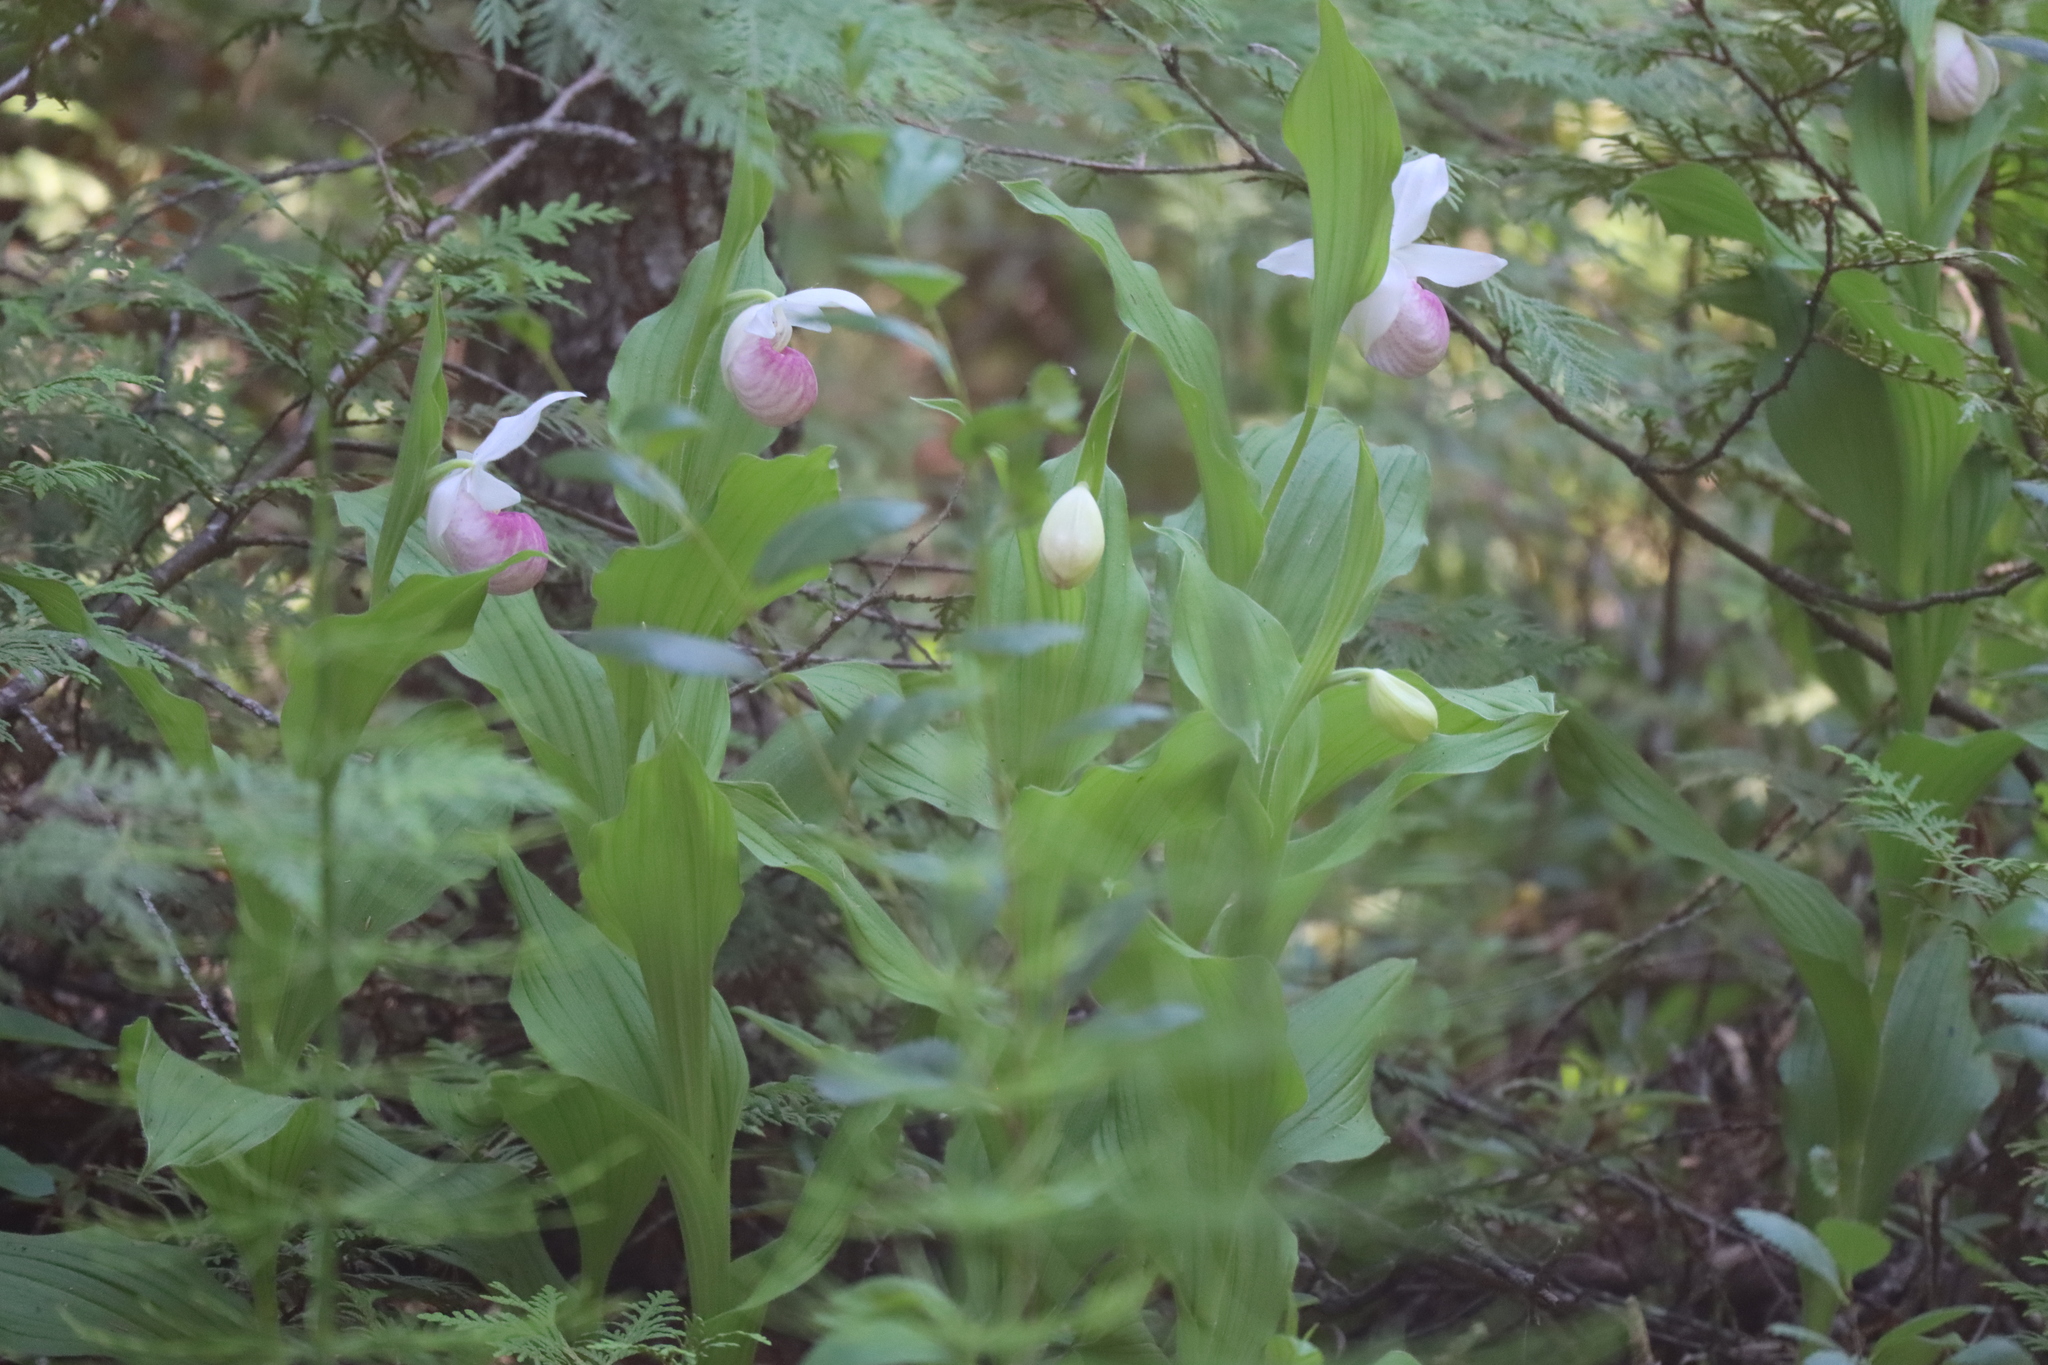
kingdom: Plantae
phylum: Tracheophyta
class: Liliopsida
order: Asparagales
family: Orchidaceae
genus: Cypripedium
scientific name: Cypripedium reginae
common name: Queen lady's-slipper
